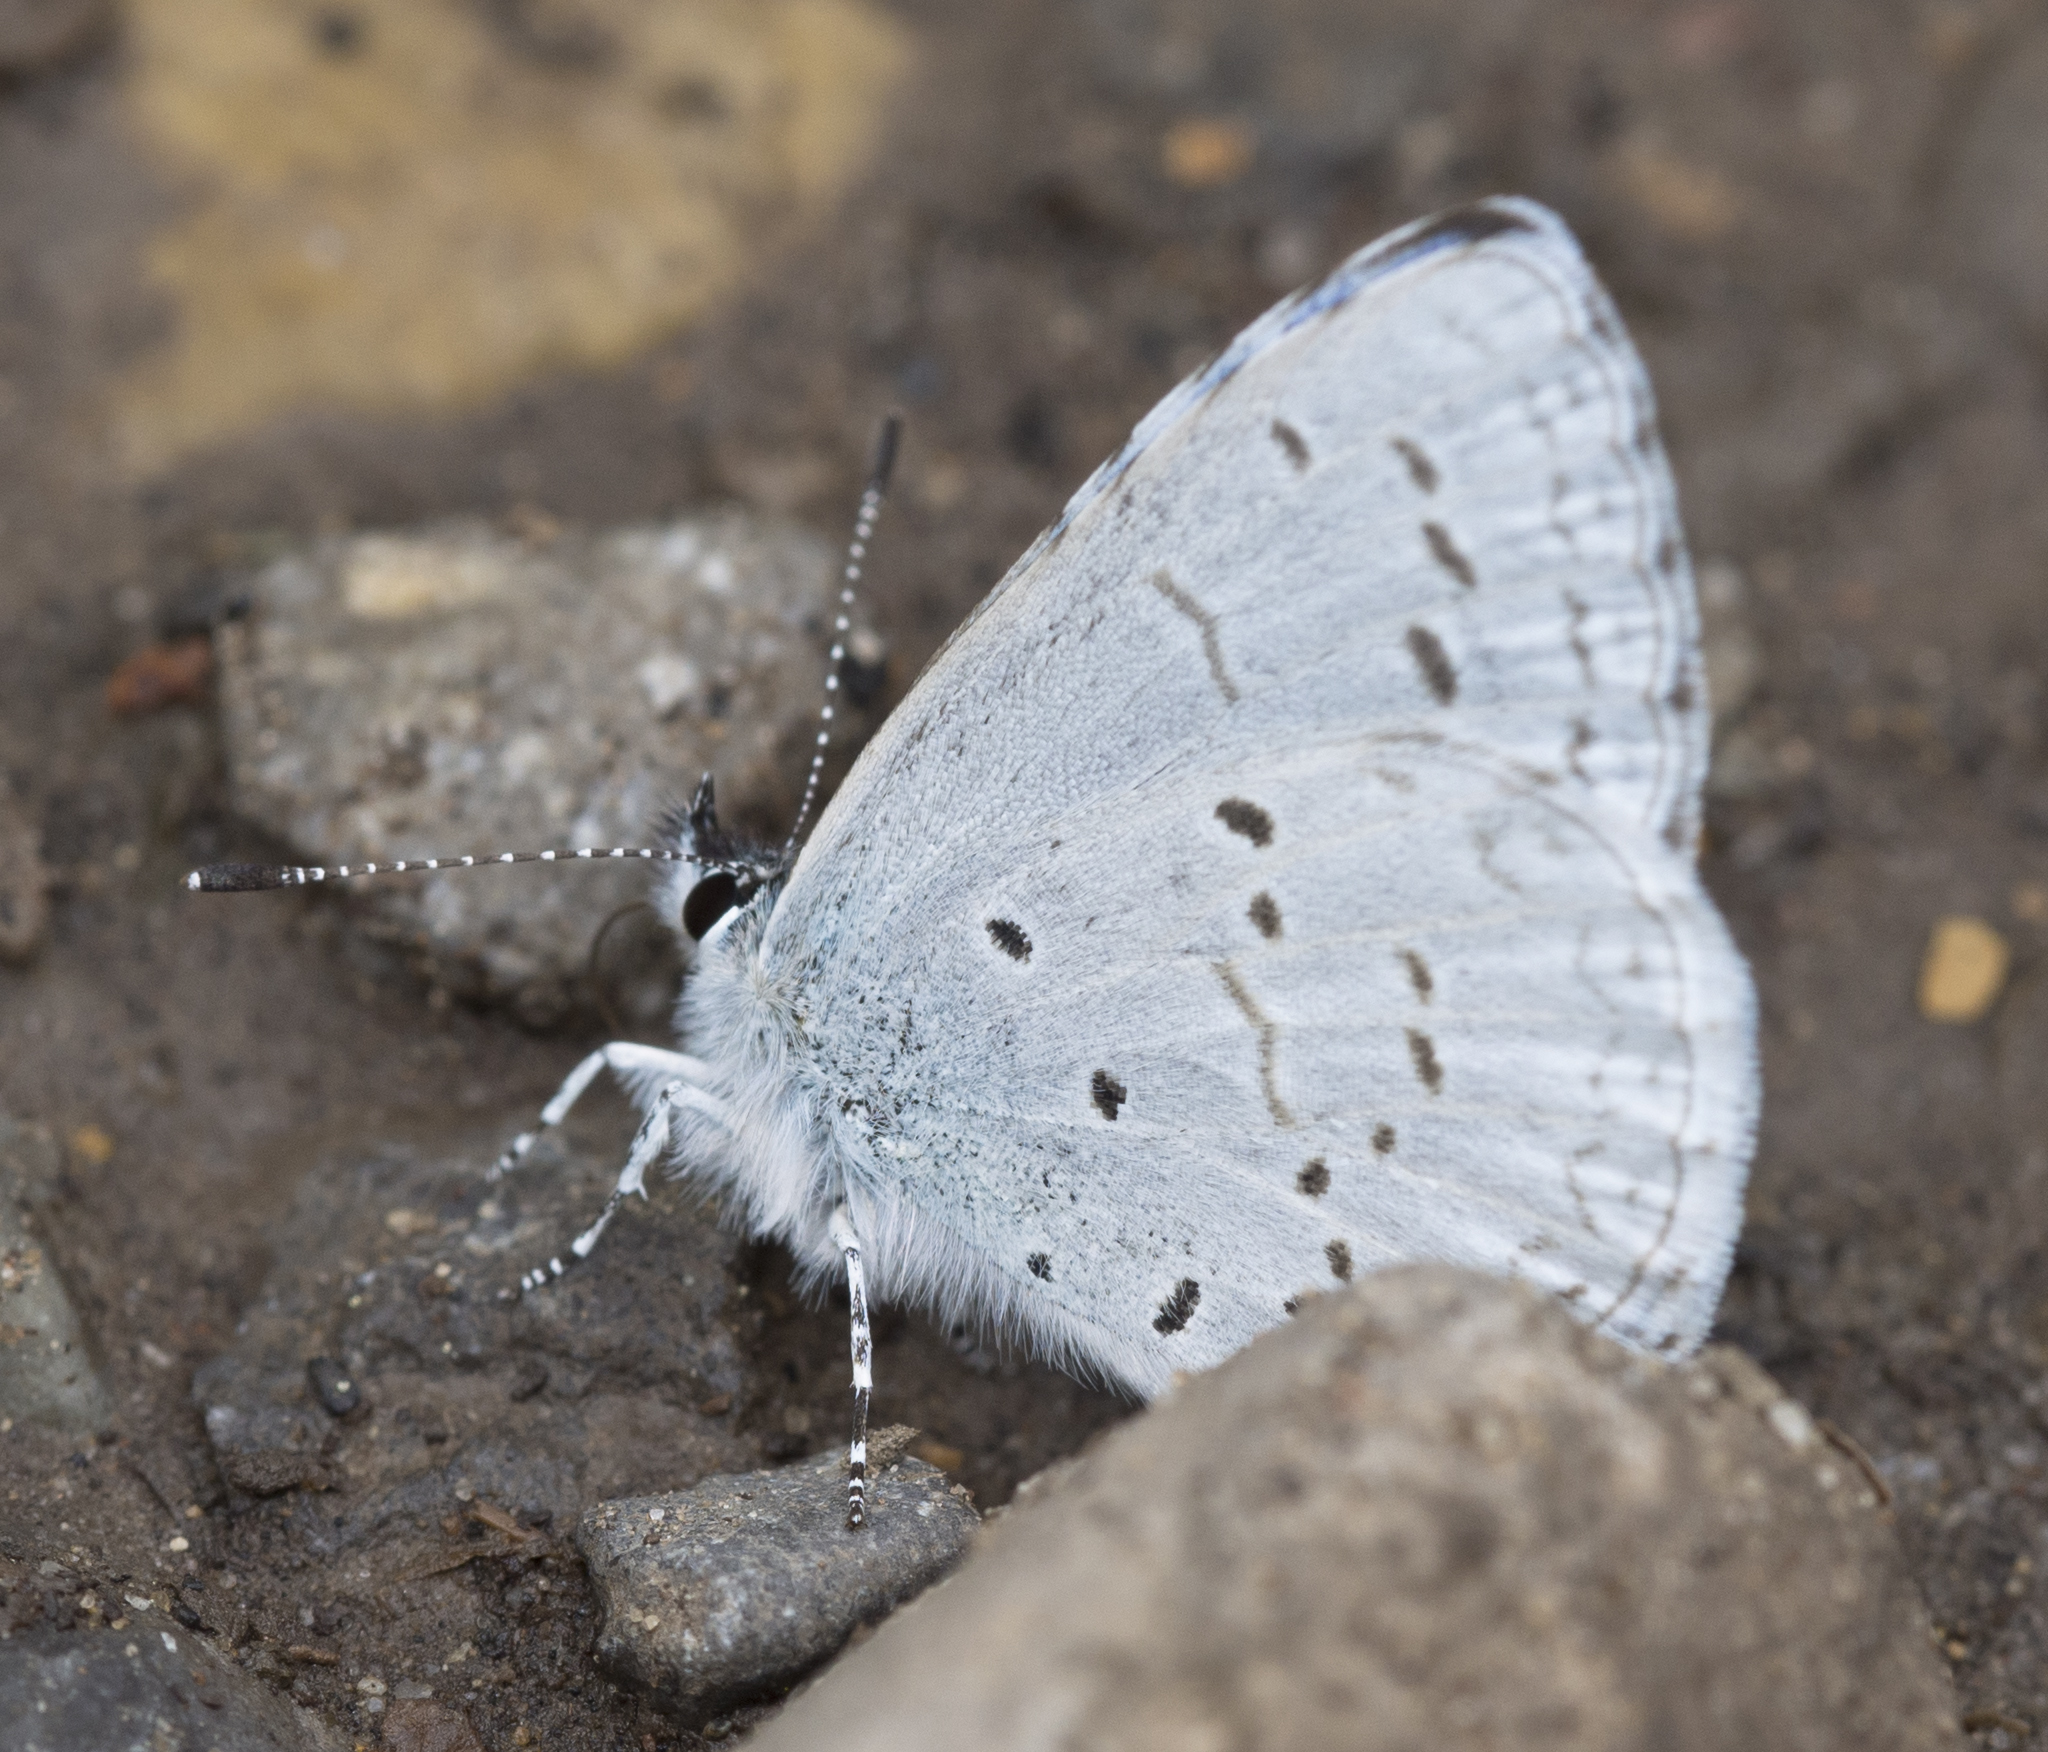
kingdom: Animalia
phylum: Arthropoda
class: Insecta
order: Lepidoptera
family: Lycaenidae
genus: Celastrina
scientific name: Celastrina ladon
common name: Spring azure
